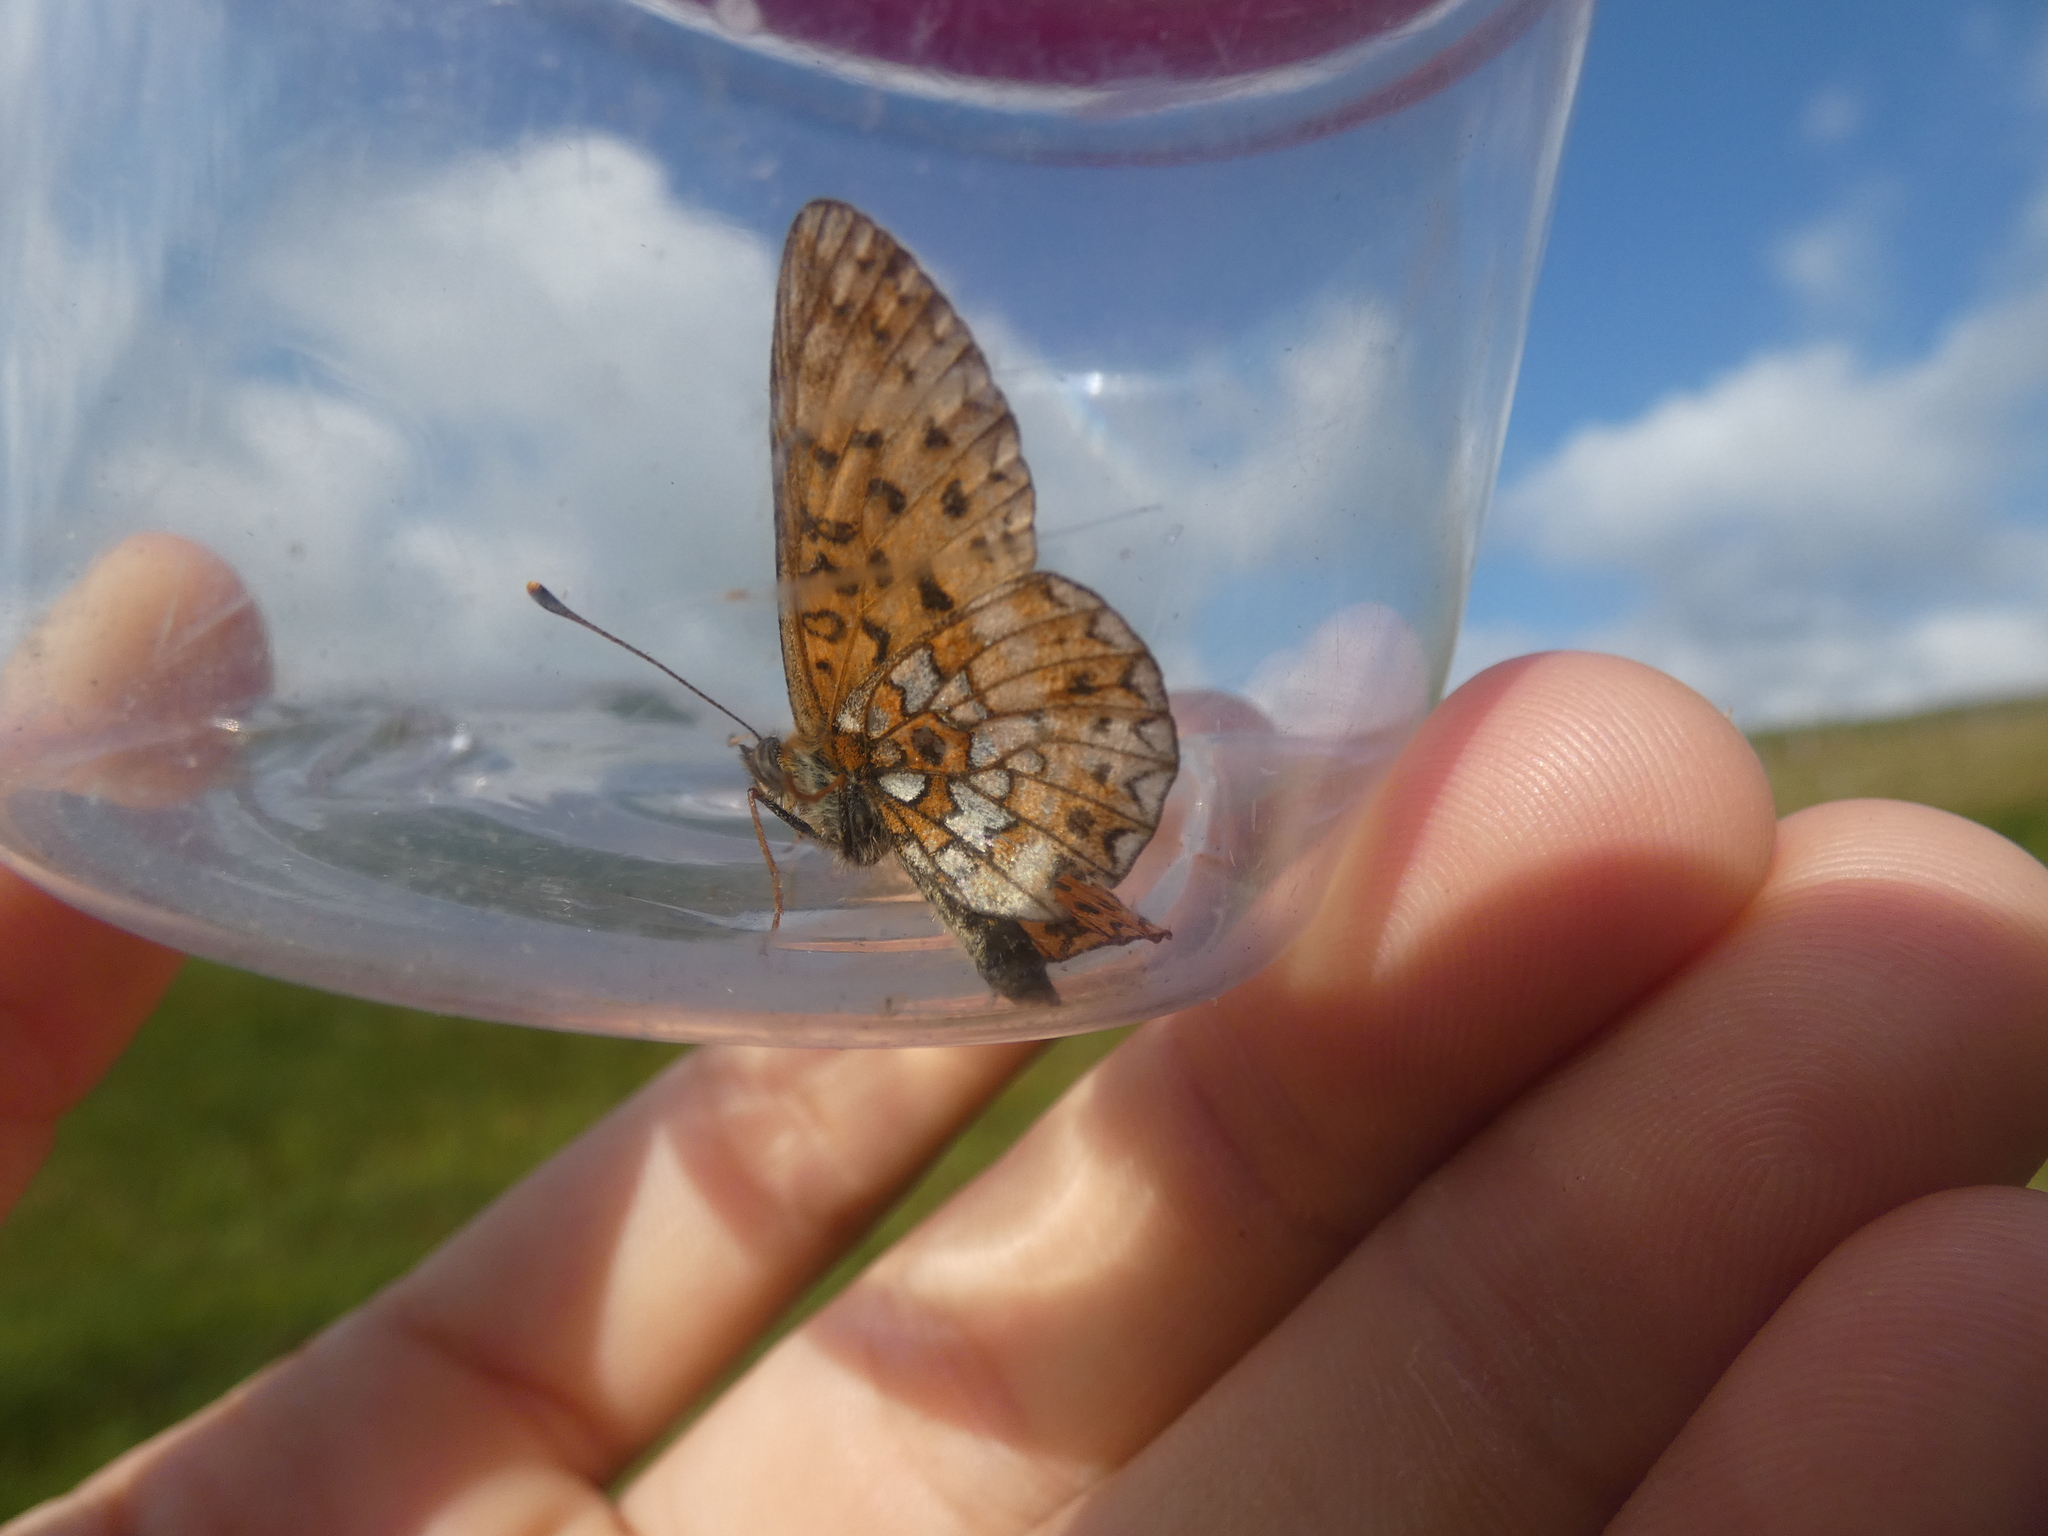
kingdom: Animalia
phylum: Arthropoda
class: Insecta
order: Lepidoptera
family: Nymphalidae
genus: Boloria
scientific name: Boloria selene
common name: Small pearl-bordered fritillary
